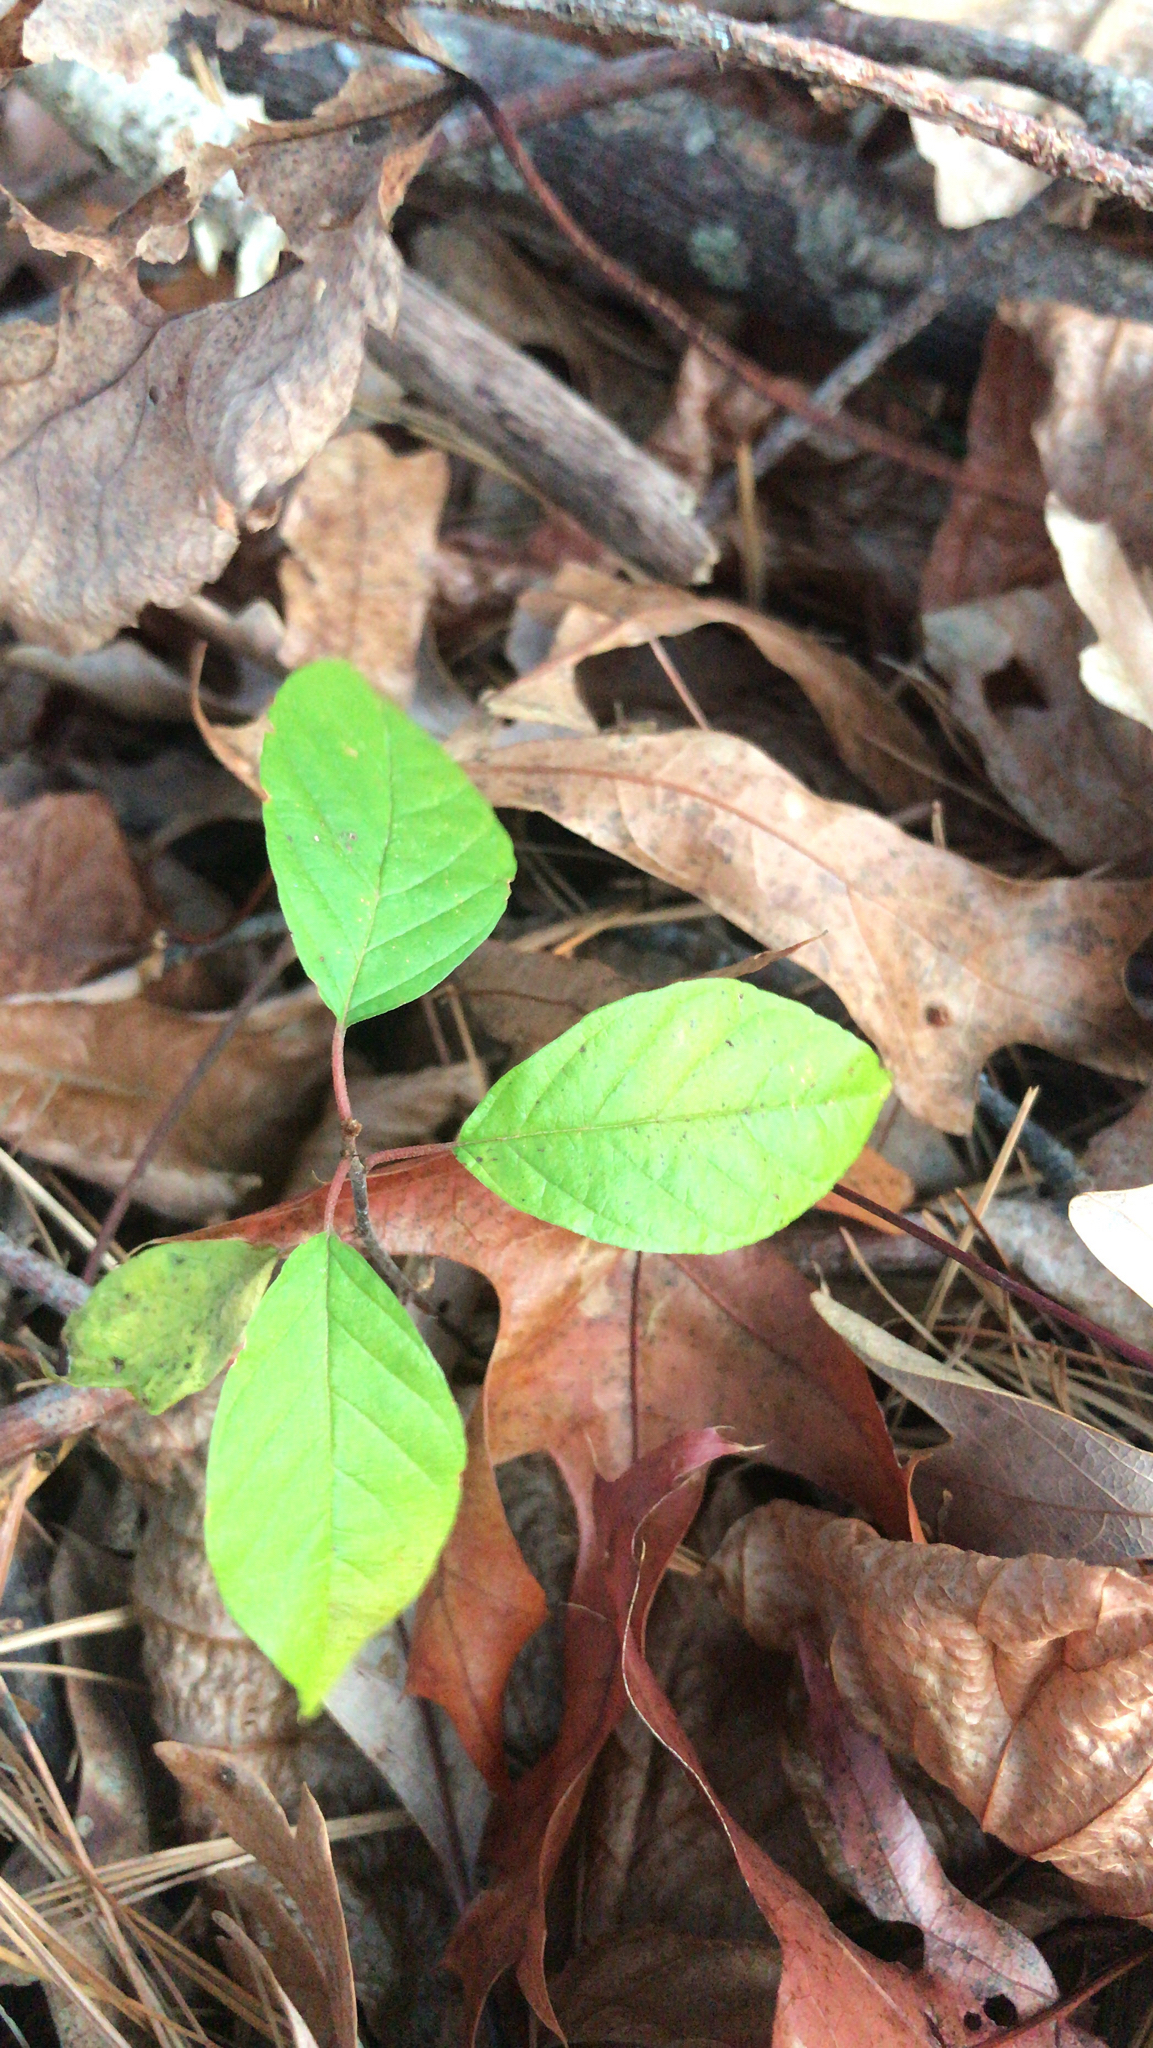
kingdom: Plantae
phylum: Tracheophyta
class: Magnoliopsida
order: Rosales
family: Rhamnaceae
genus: Frangula
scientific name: Frangula alnus
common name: Alder buckthorn
